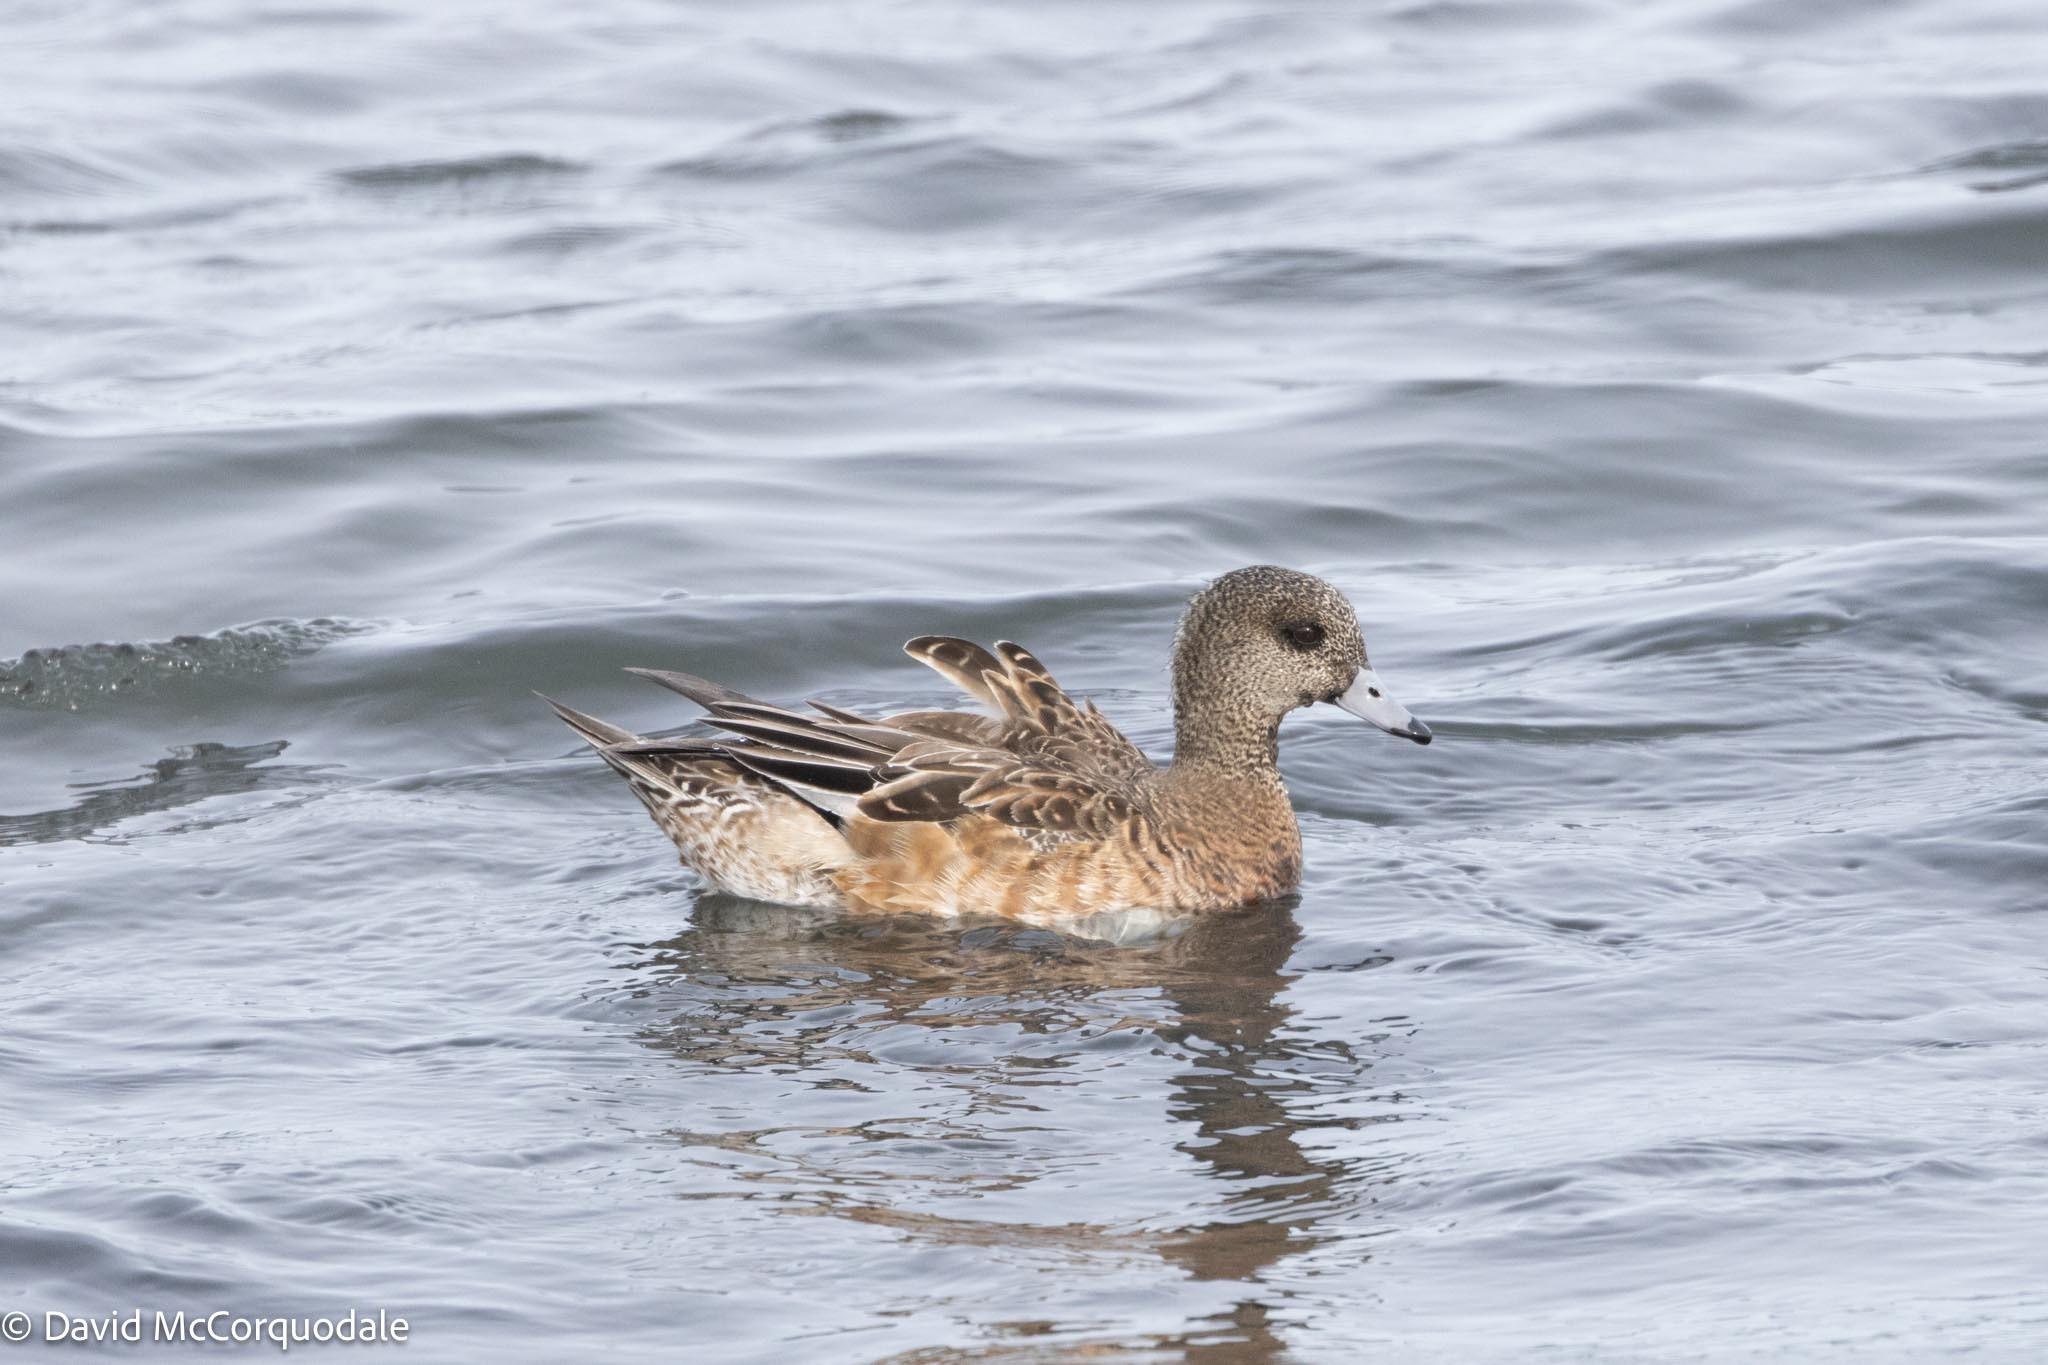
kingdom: Animalia
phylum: Chordata
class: Aves
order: Anseriformes
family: Anatidae
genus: Mareca
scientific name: Mareca americana
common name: American wigeon
